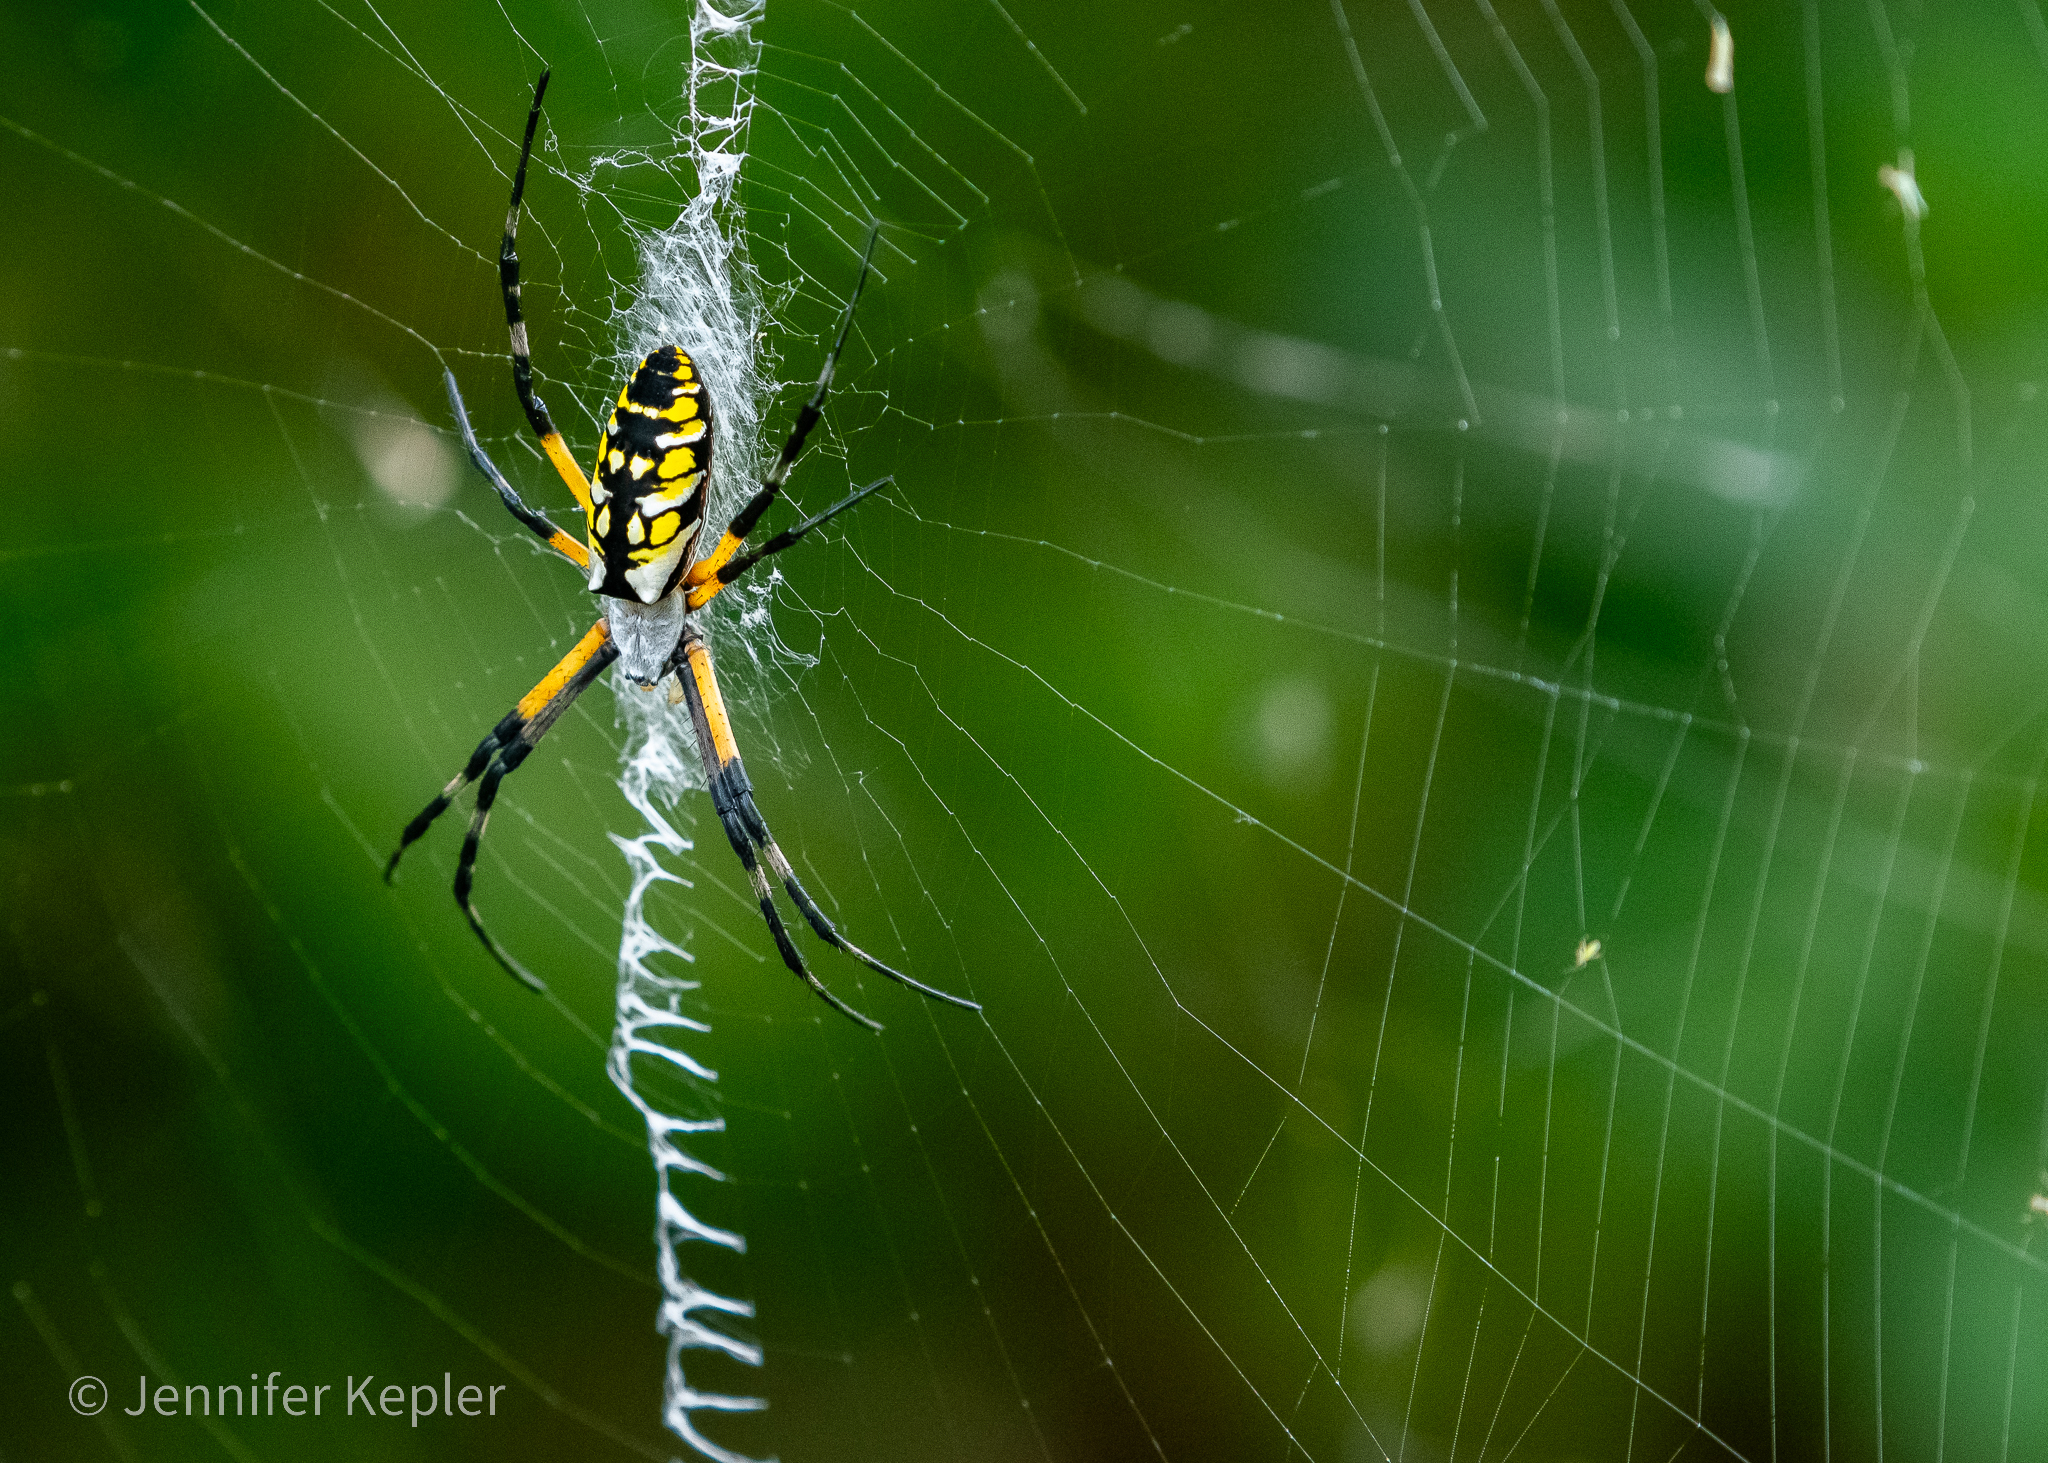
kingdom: Animalia
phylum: Arthropoda
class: Arachnida
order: Araneae
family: Araneidae
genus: Argiope
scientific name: Argiope aurantia
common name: Orb weavers
